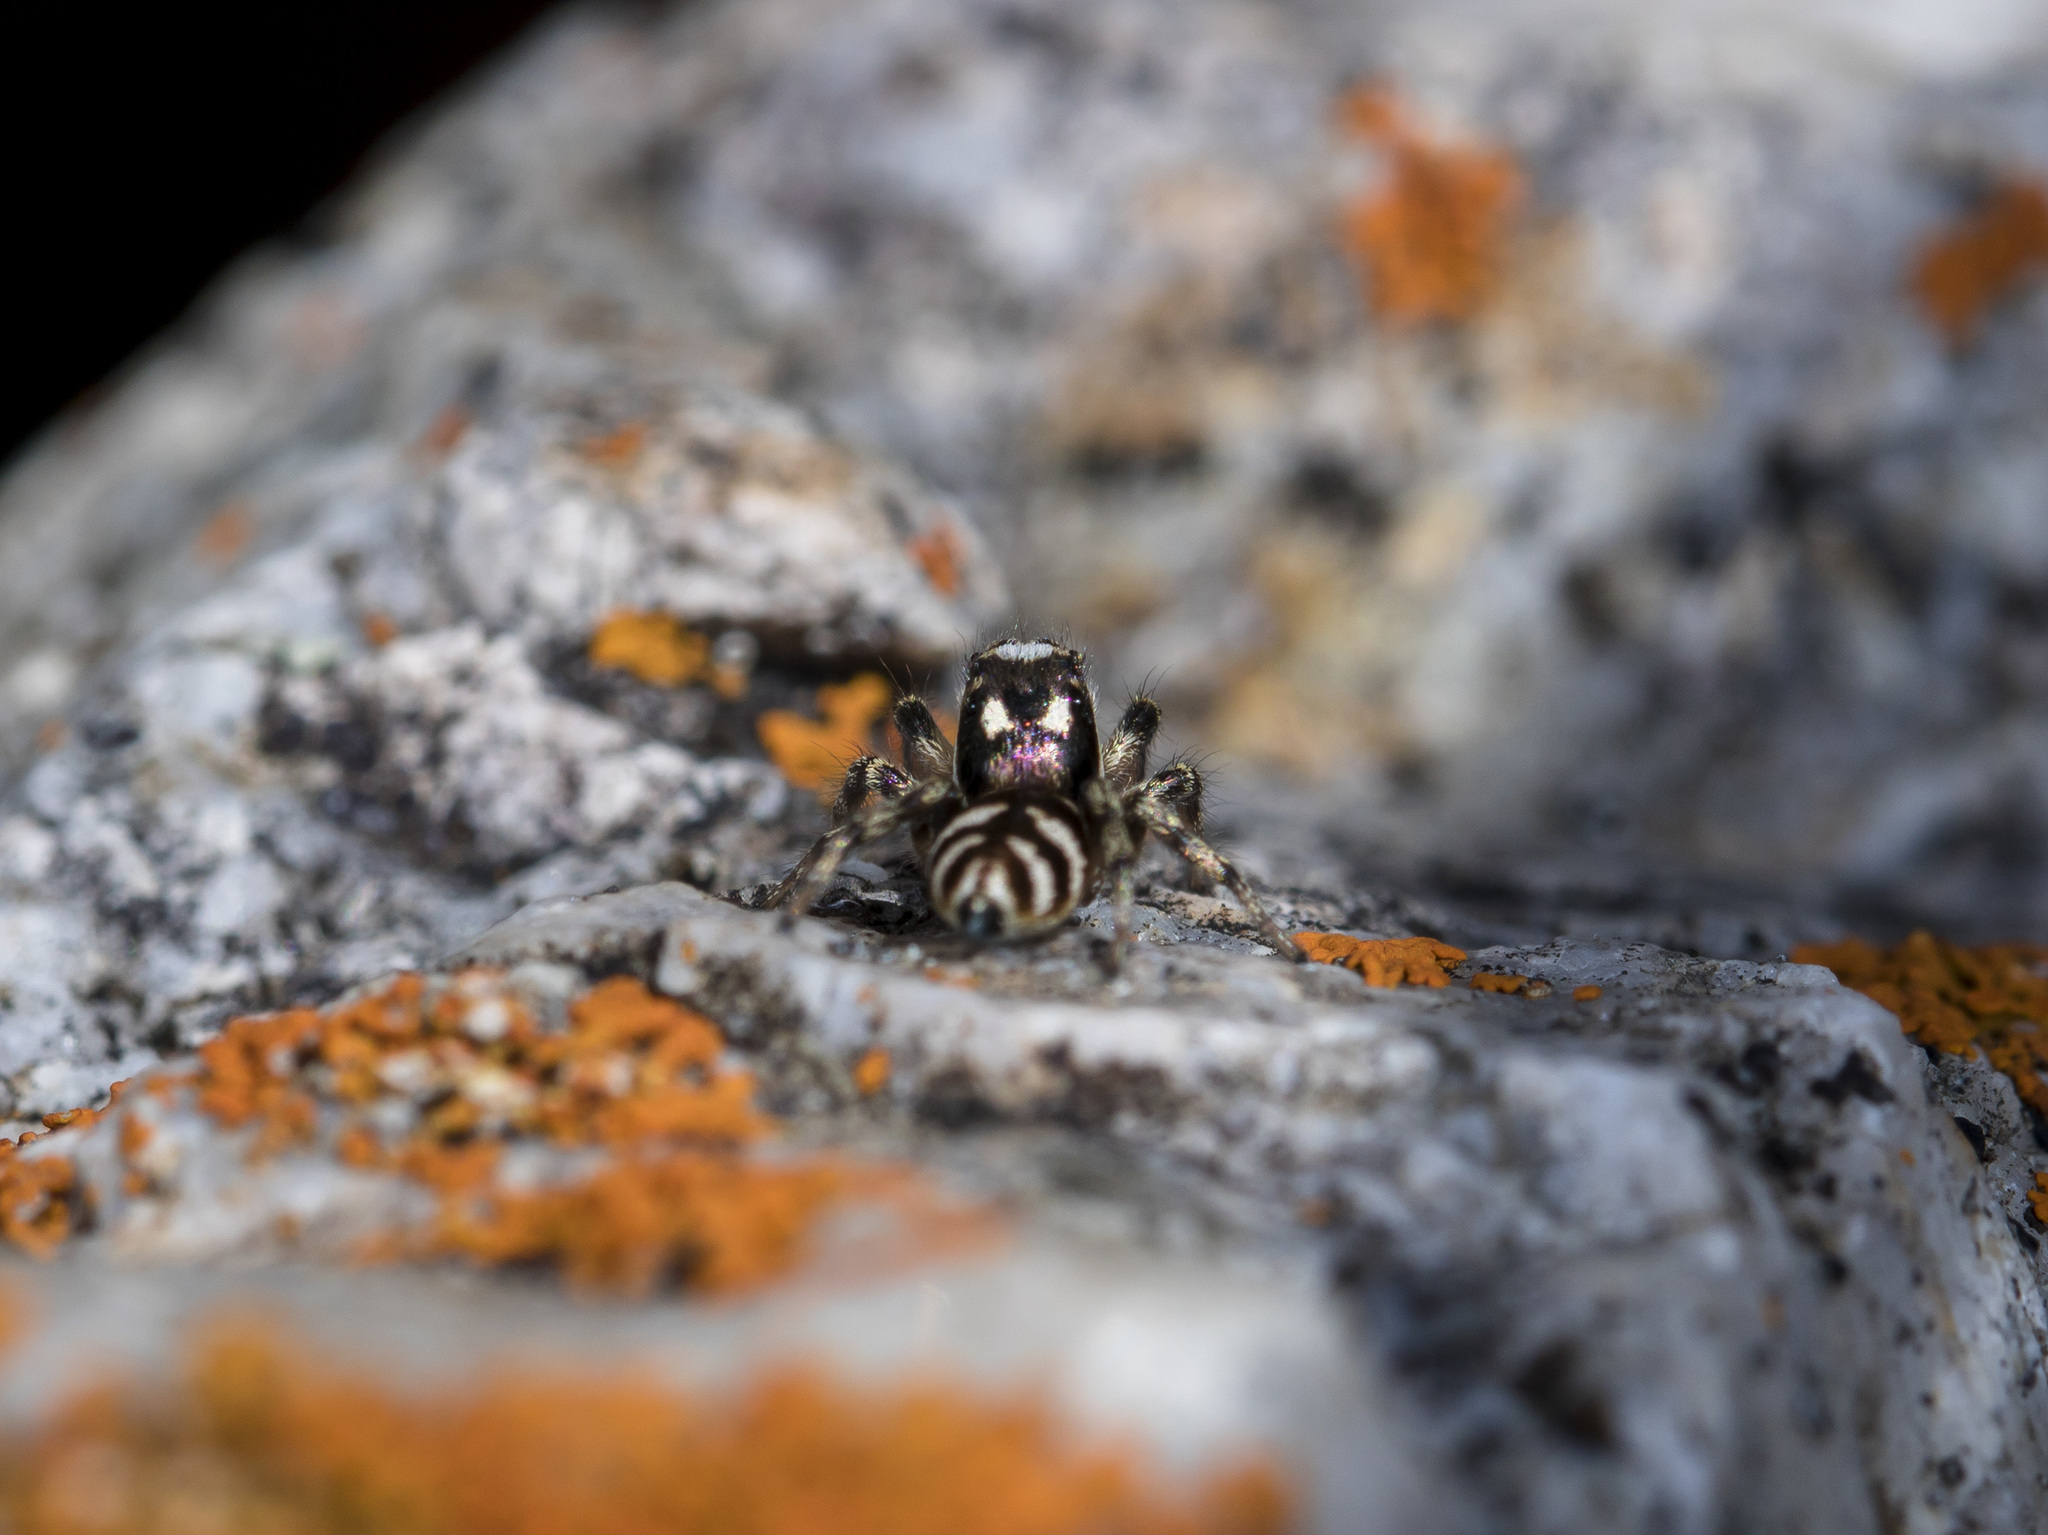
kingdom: Animalia
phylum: Arthropoda
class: Arachnida
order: Araneae
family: Salticidae
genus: Salticus
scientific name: Salticus scenicus
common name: Zebra jumper
